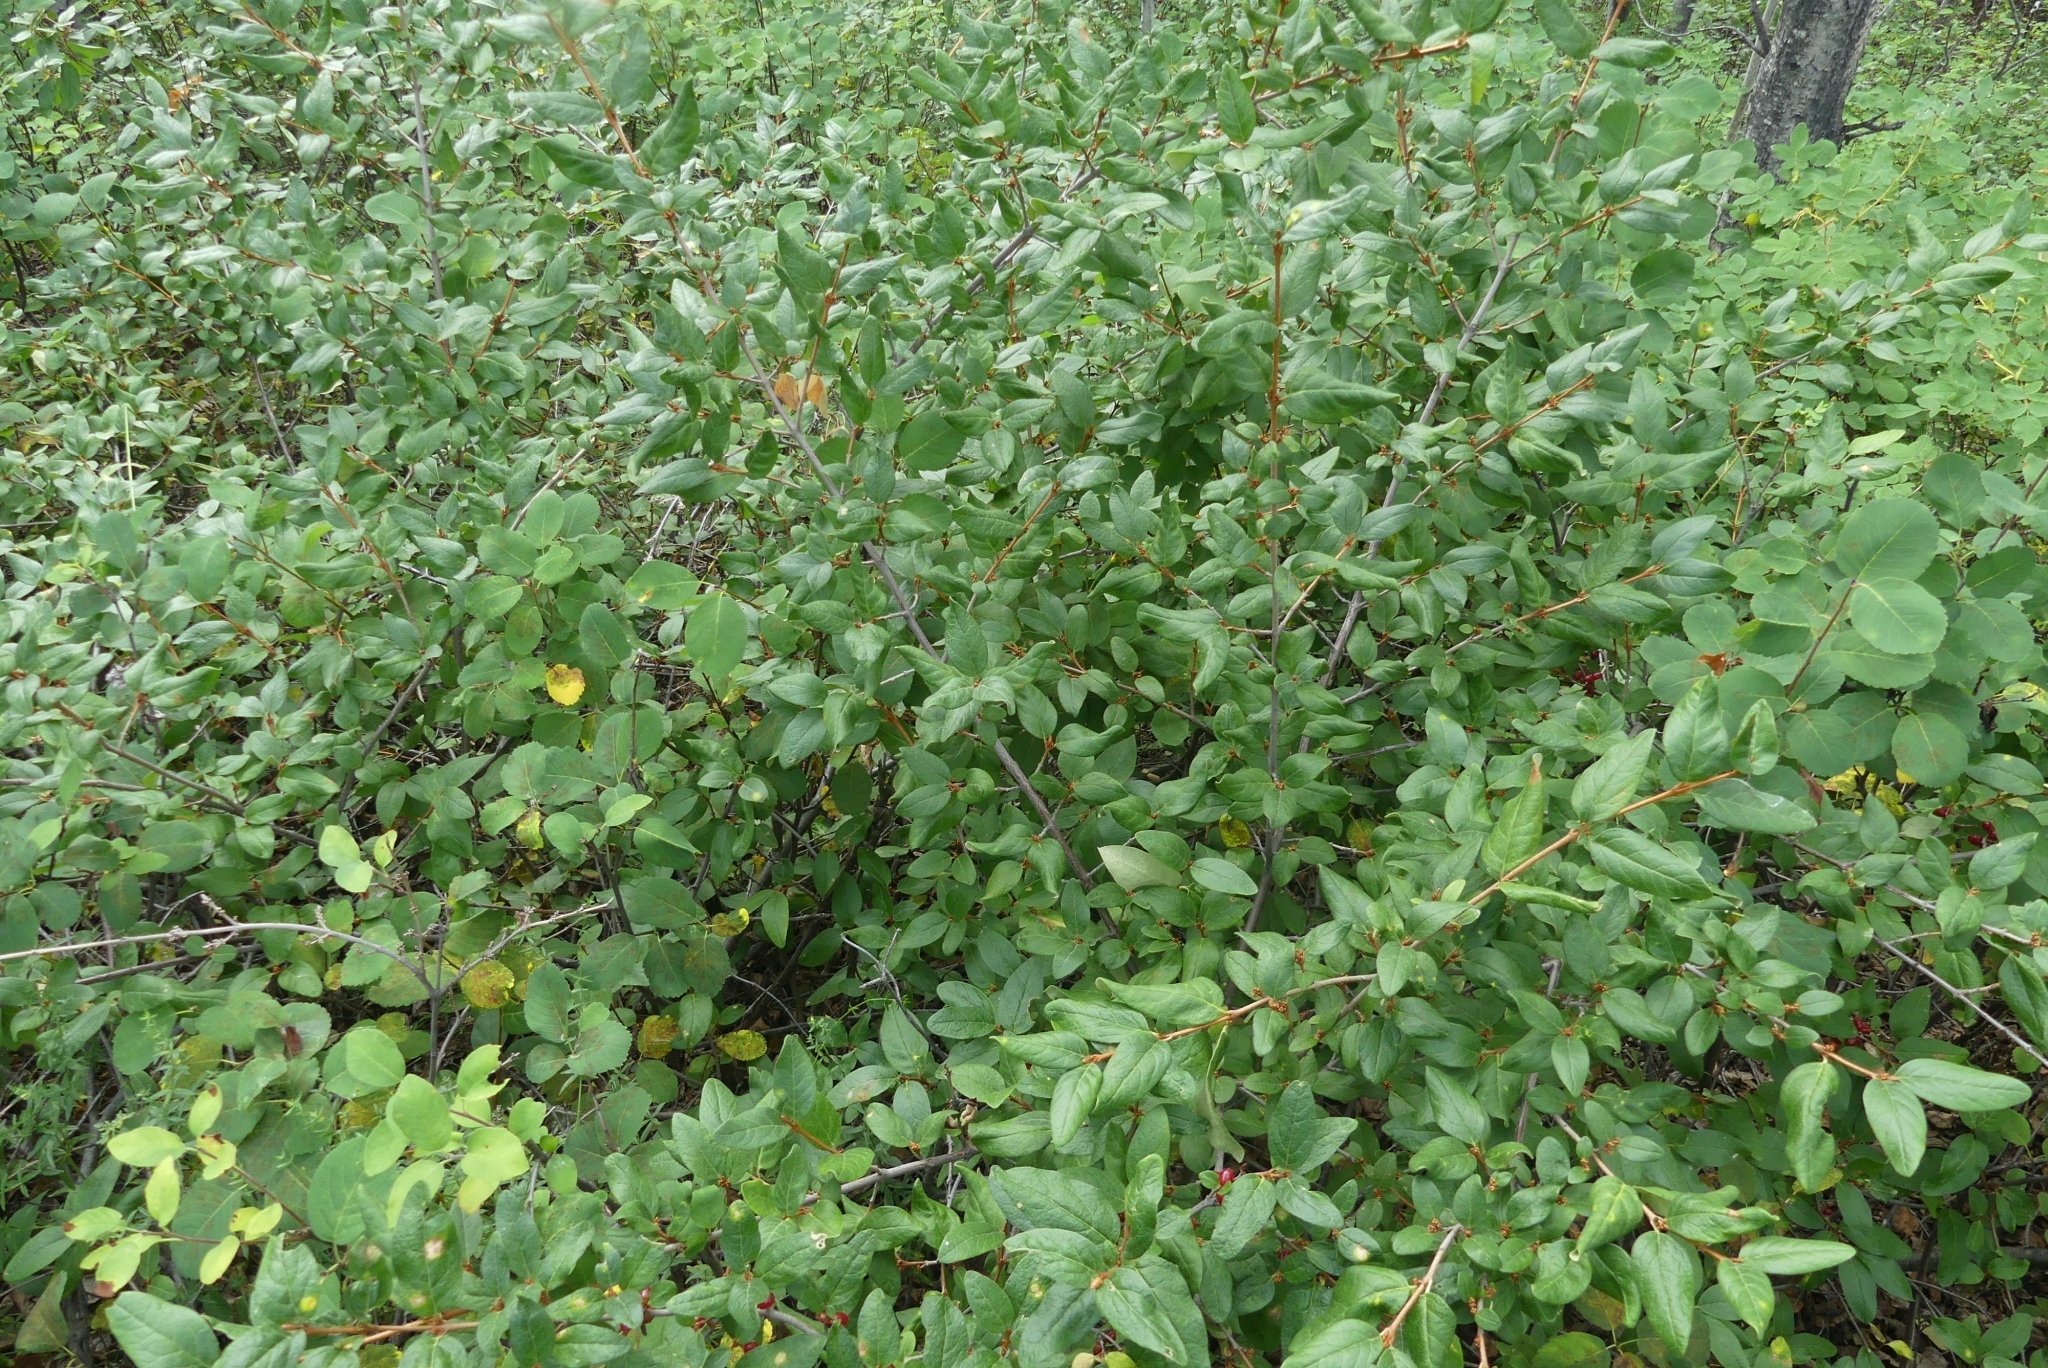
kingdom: Plantae
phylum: Tracheophyta
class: Magnoliopsida
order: Rosales
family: Elaeagnaceae
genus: Shepherdia
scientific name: Shepherdia canadensis
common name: Soapberry
